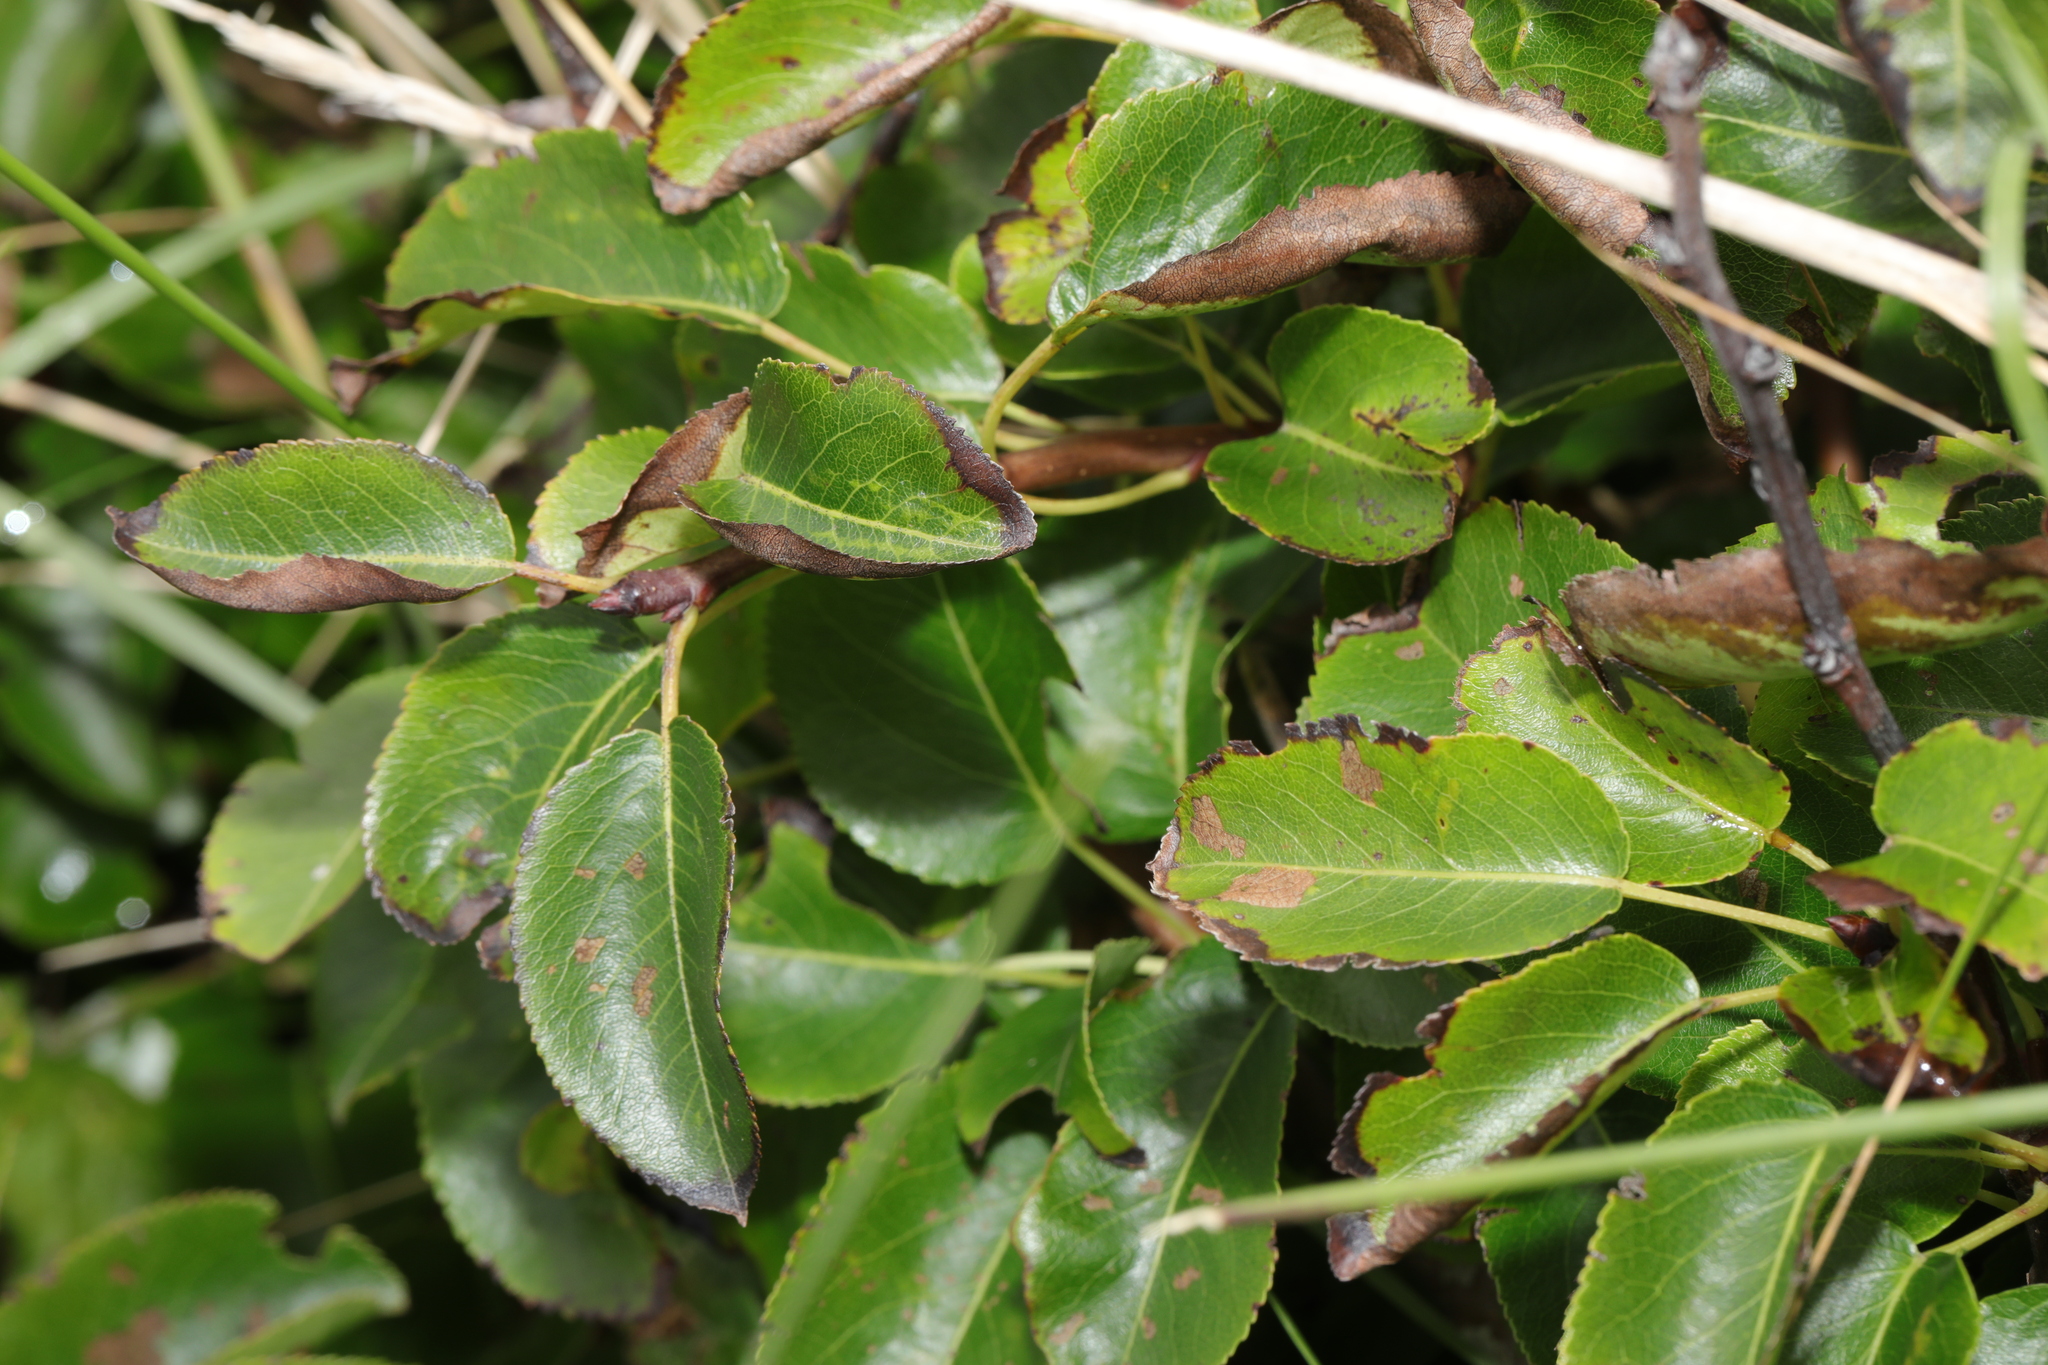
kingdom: Plantae
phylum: Tracheophyta
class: Magnoliopsida
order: Rosales
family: Rosaceae
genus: Pyrus
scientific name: Pyrus communis
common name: Pear
